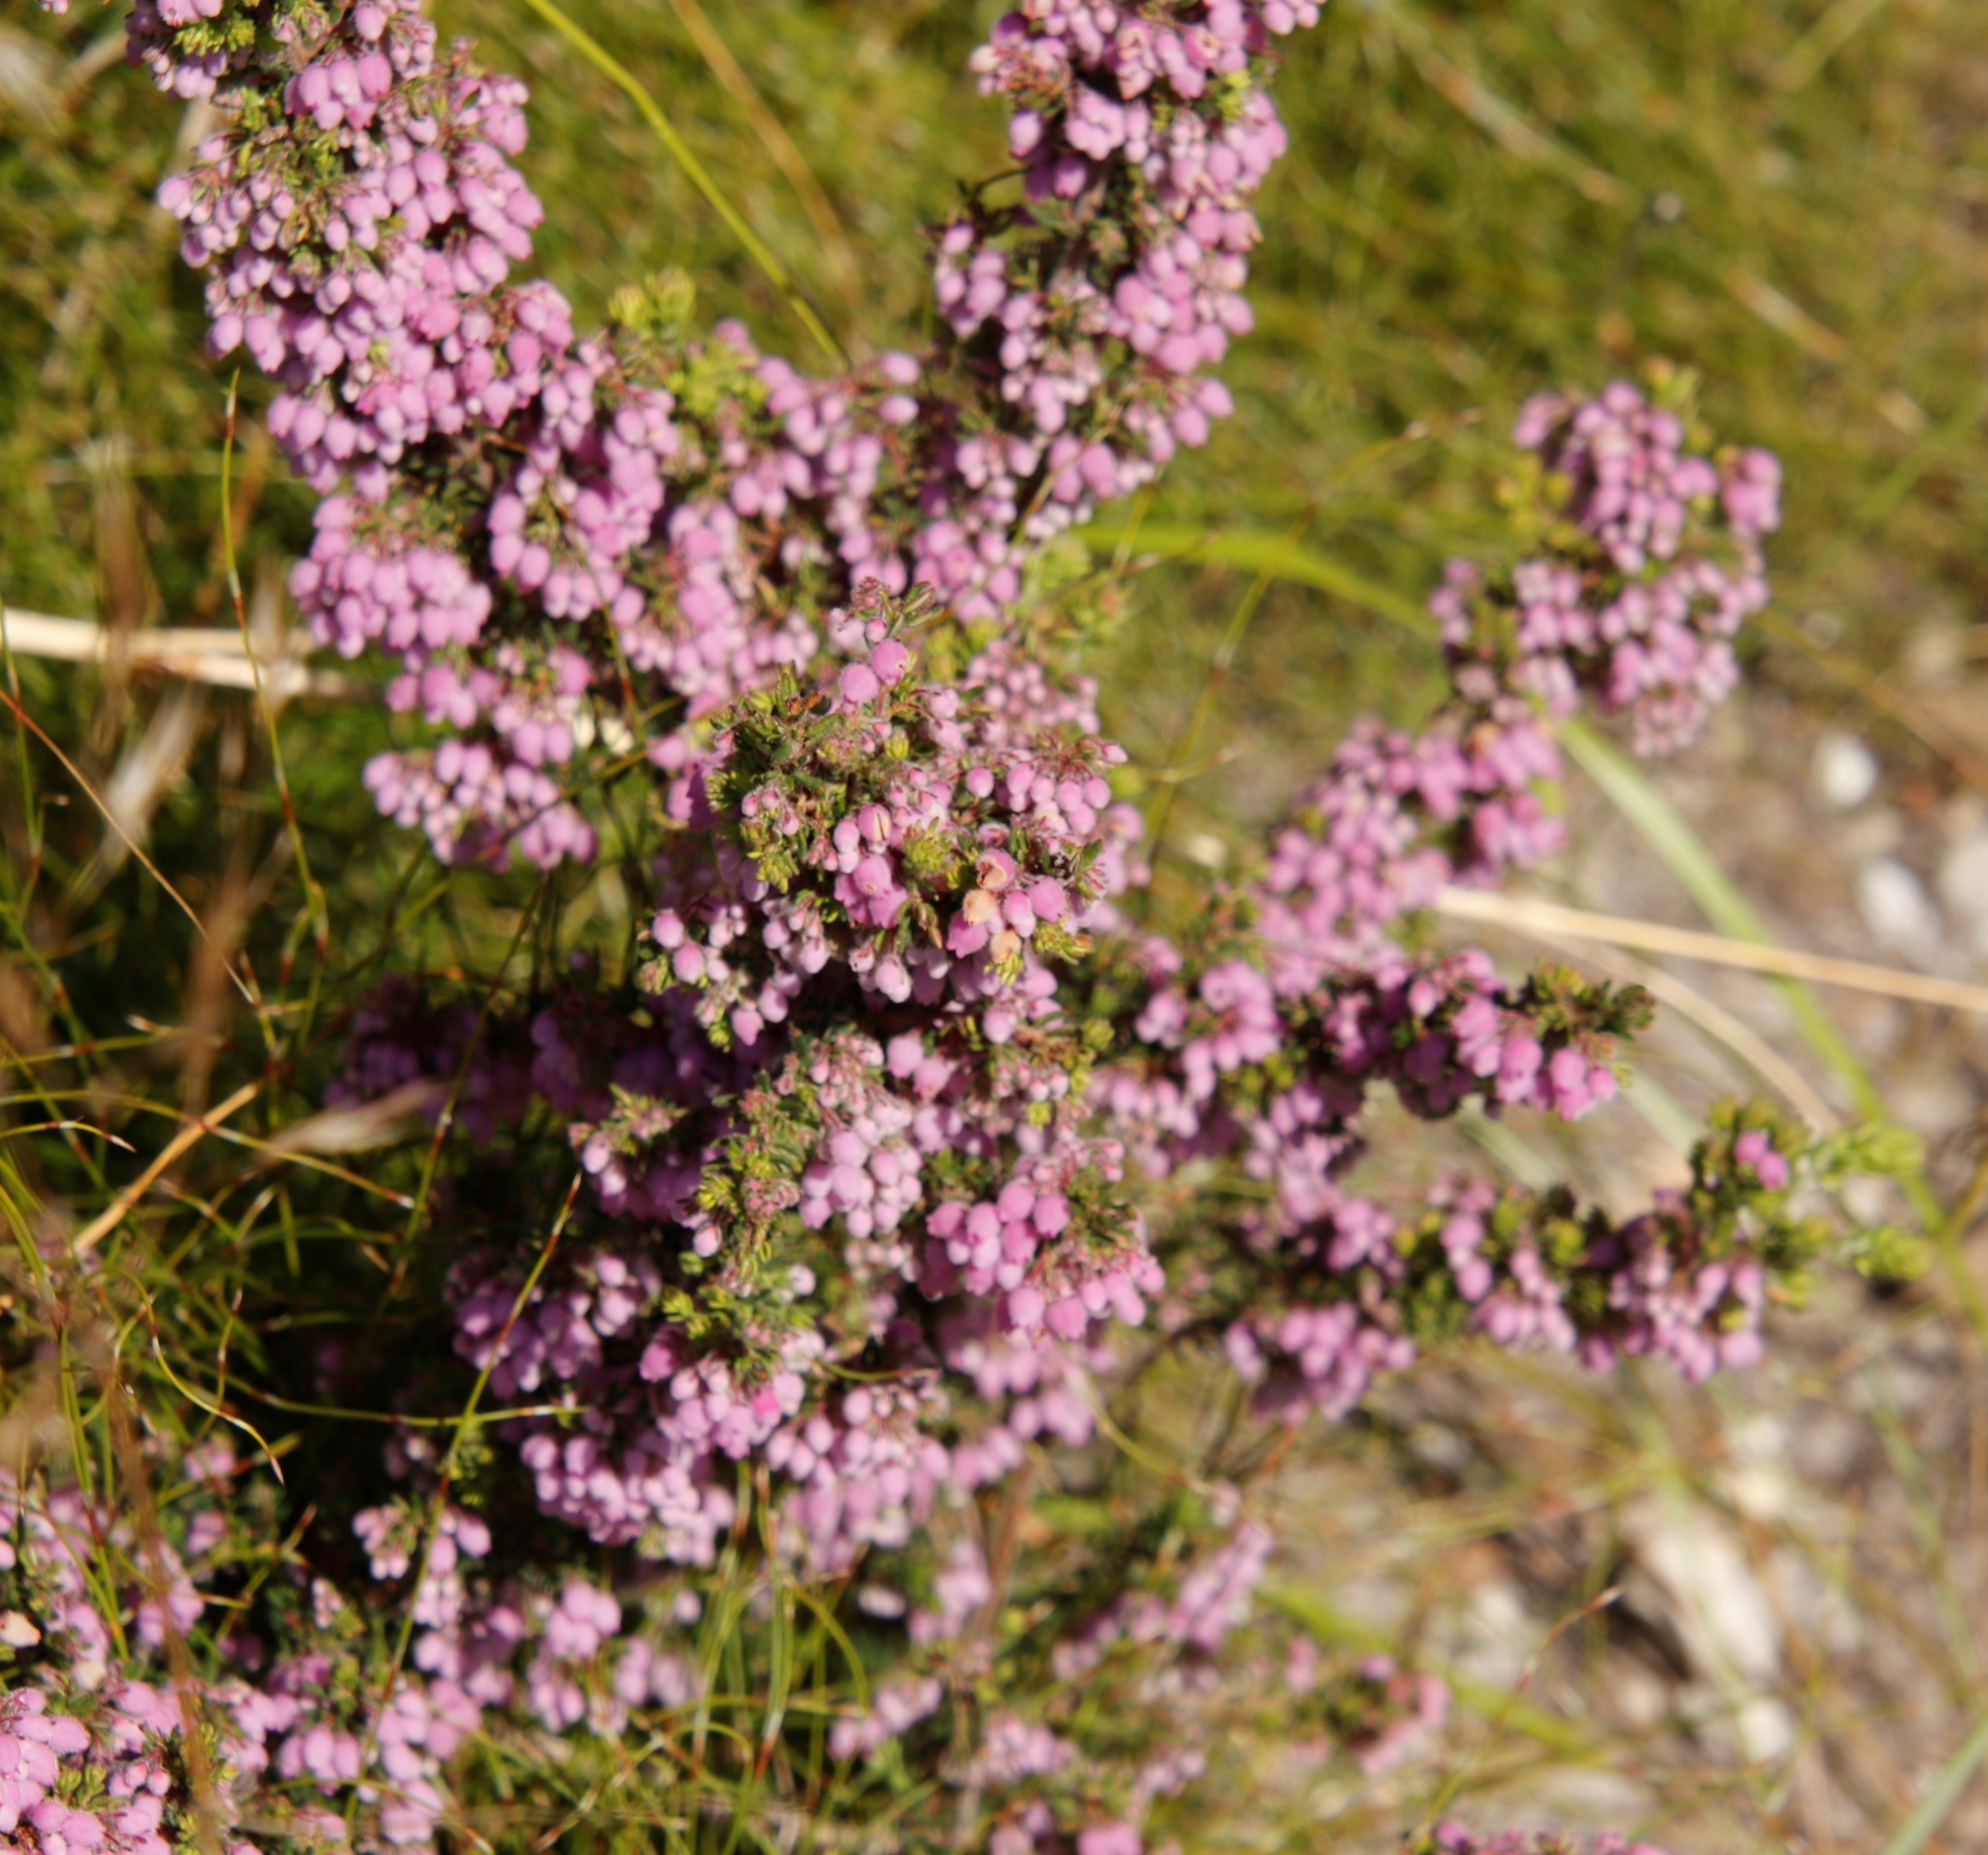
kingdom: Plantae
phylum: Tracheophyta
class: Magnoliopsida
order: Ericales
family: Ericaceae
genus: Erica
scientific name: Erica hirtiflora
